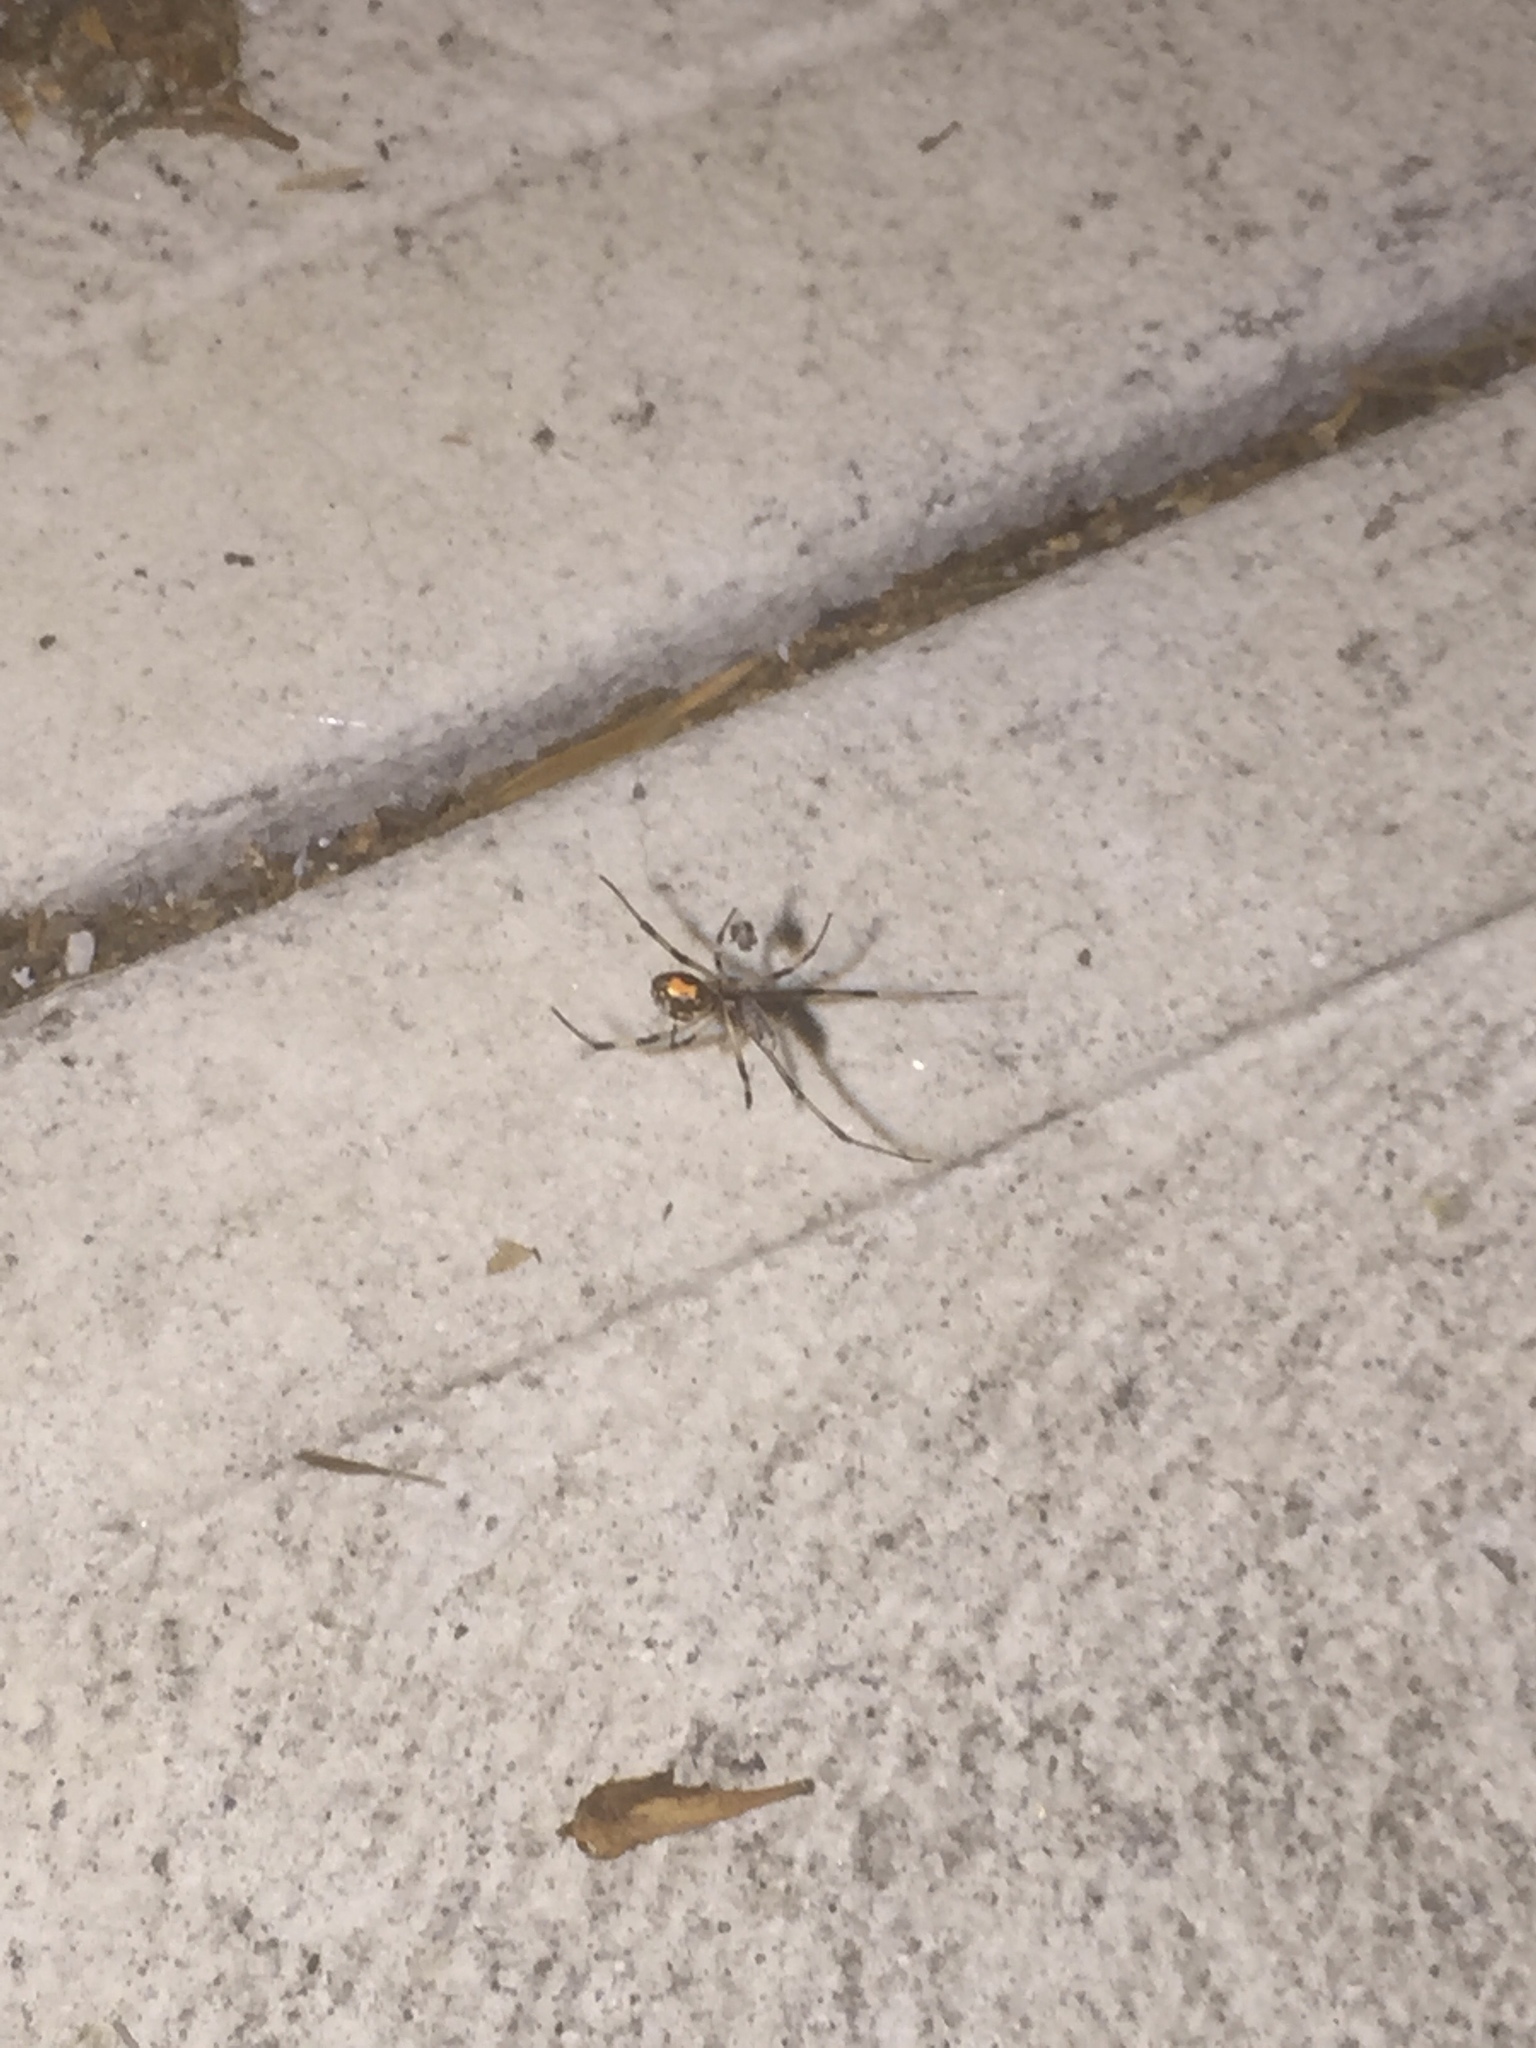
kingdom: Animalia
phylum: Arthropoda
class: Arachnida
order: Araneae
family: Theridiidae
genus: Latrodectus
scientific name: Latrodectus geometricus
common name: Brown widow spider
